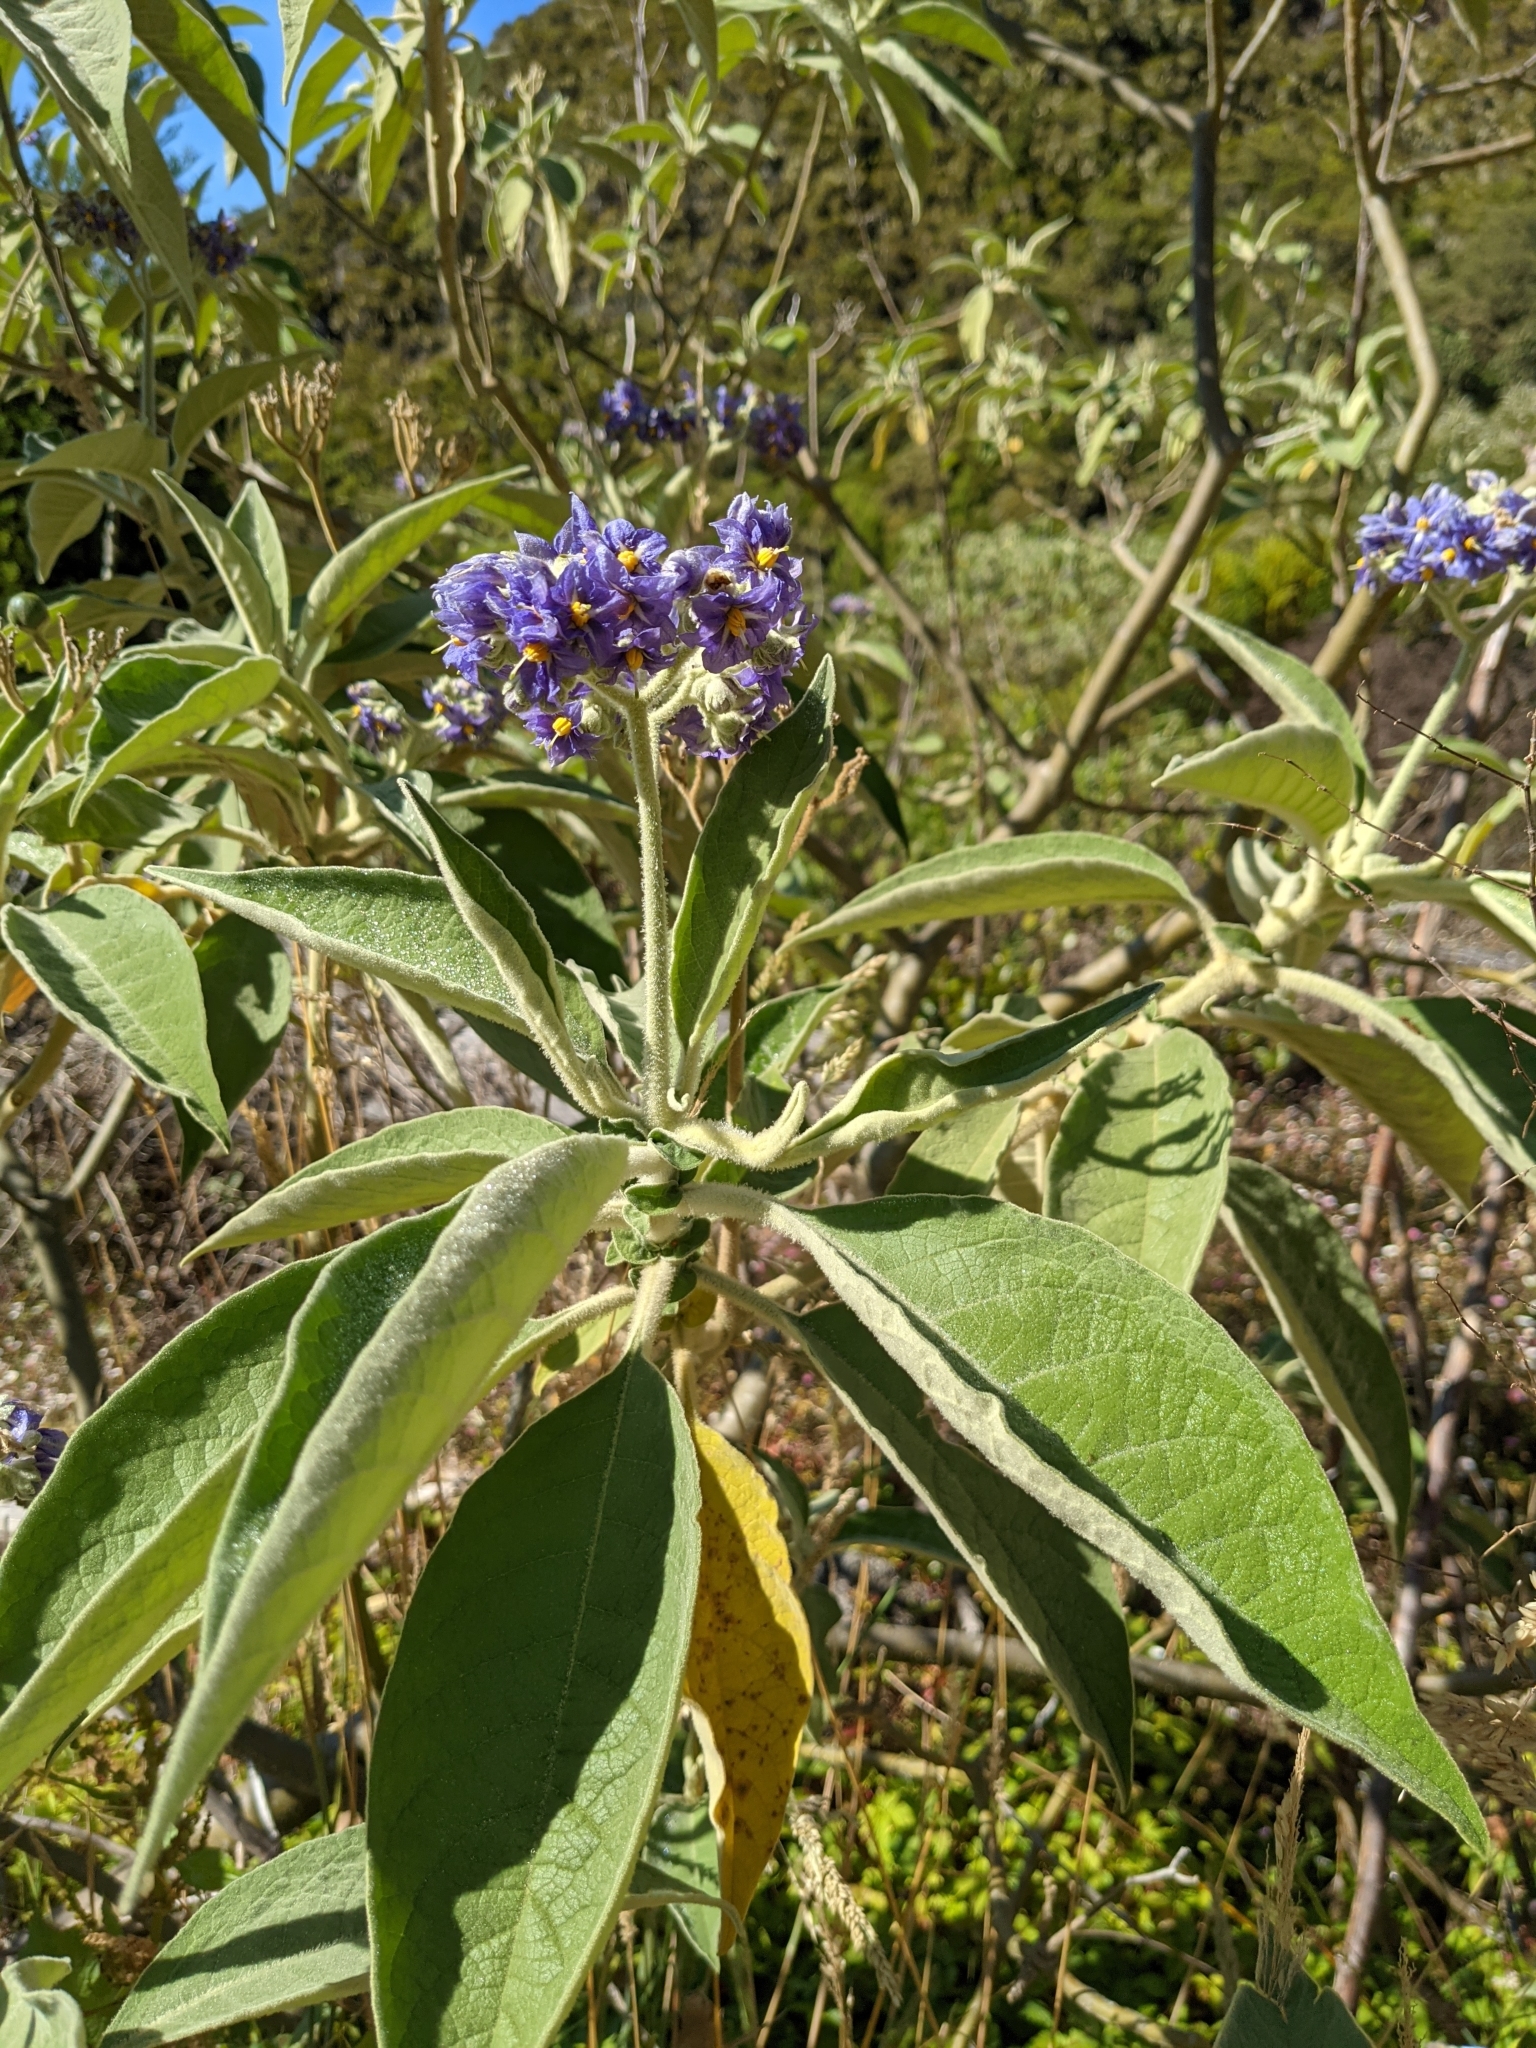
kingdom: Plantae
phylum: Tracheophyta
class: Magnoliopsida
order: Solanales
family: Solanaceae
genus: Solanum
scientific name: Solanum mauritianum
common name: Earleaf nightshade
